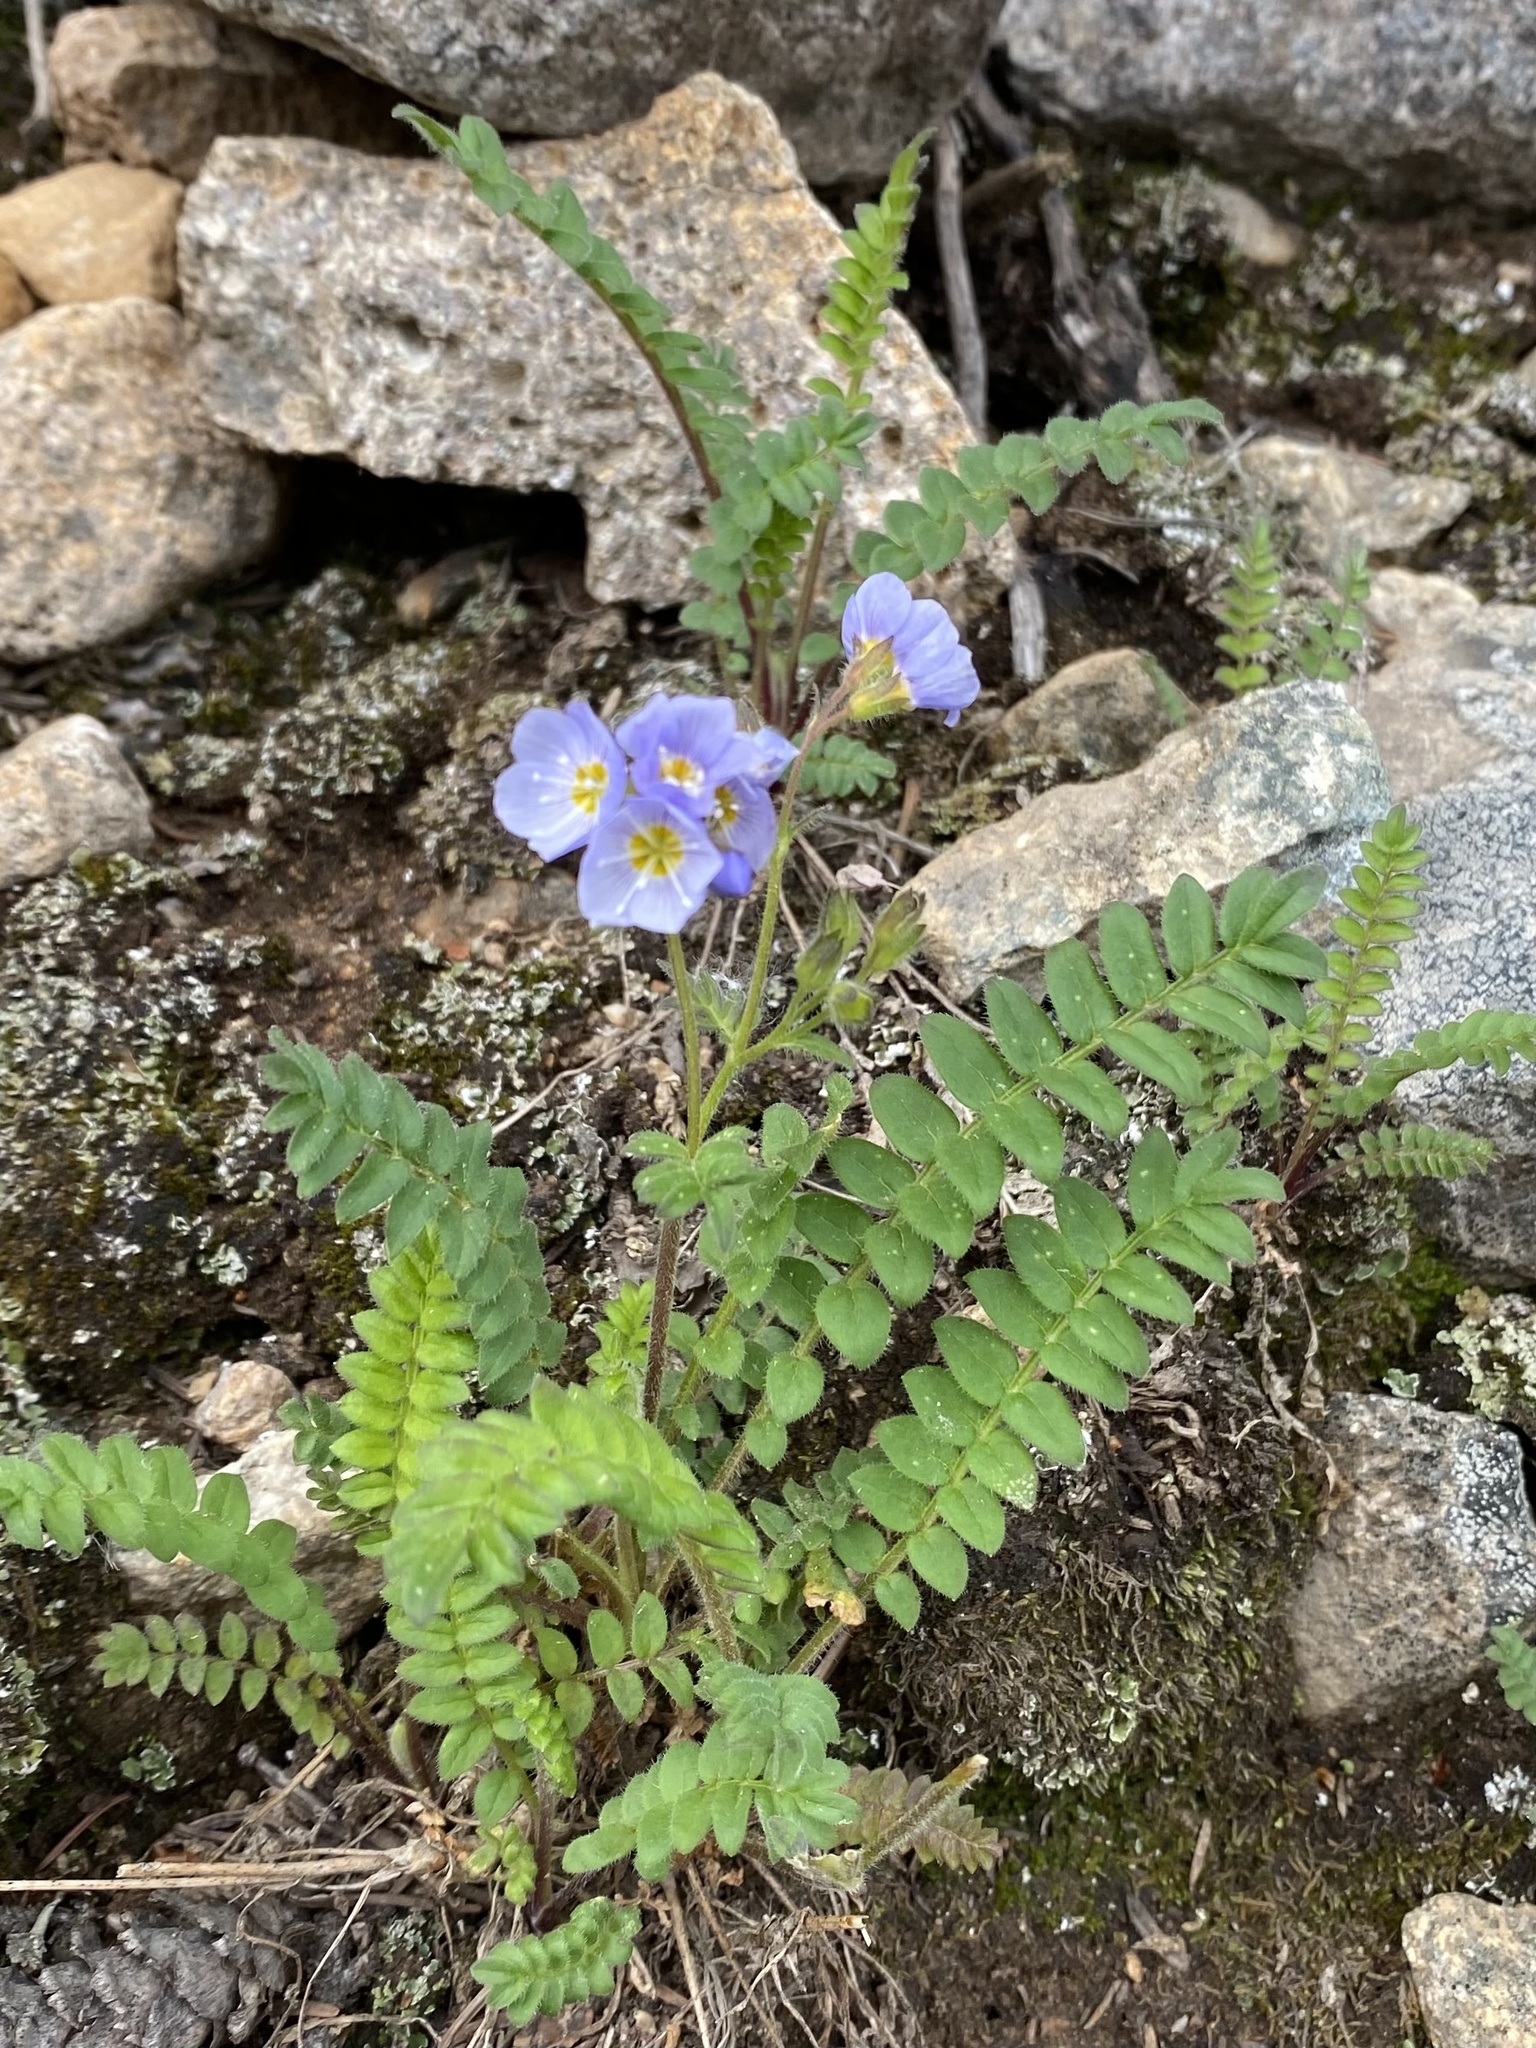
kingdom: Plantae
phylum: Tracheophyta
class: Magnoliopsida
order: Ericales
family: Polemoniaceae
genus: Polemonium
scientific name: Polemonium pulcherrimum
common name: Short jacob's-ladder
